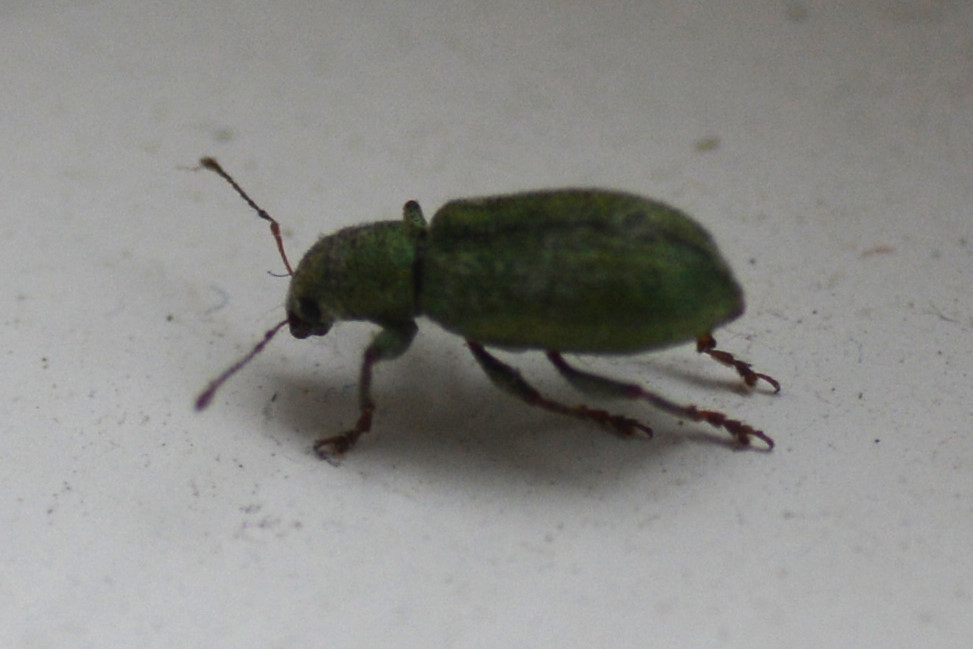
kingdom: Animalia
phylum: Arthropoda
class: Insecta
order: Coleoptera
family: Curculionidae
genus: Pachyrhinus
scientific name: Pachyrhinus lethierryi
